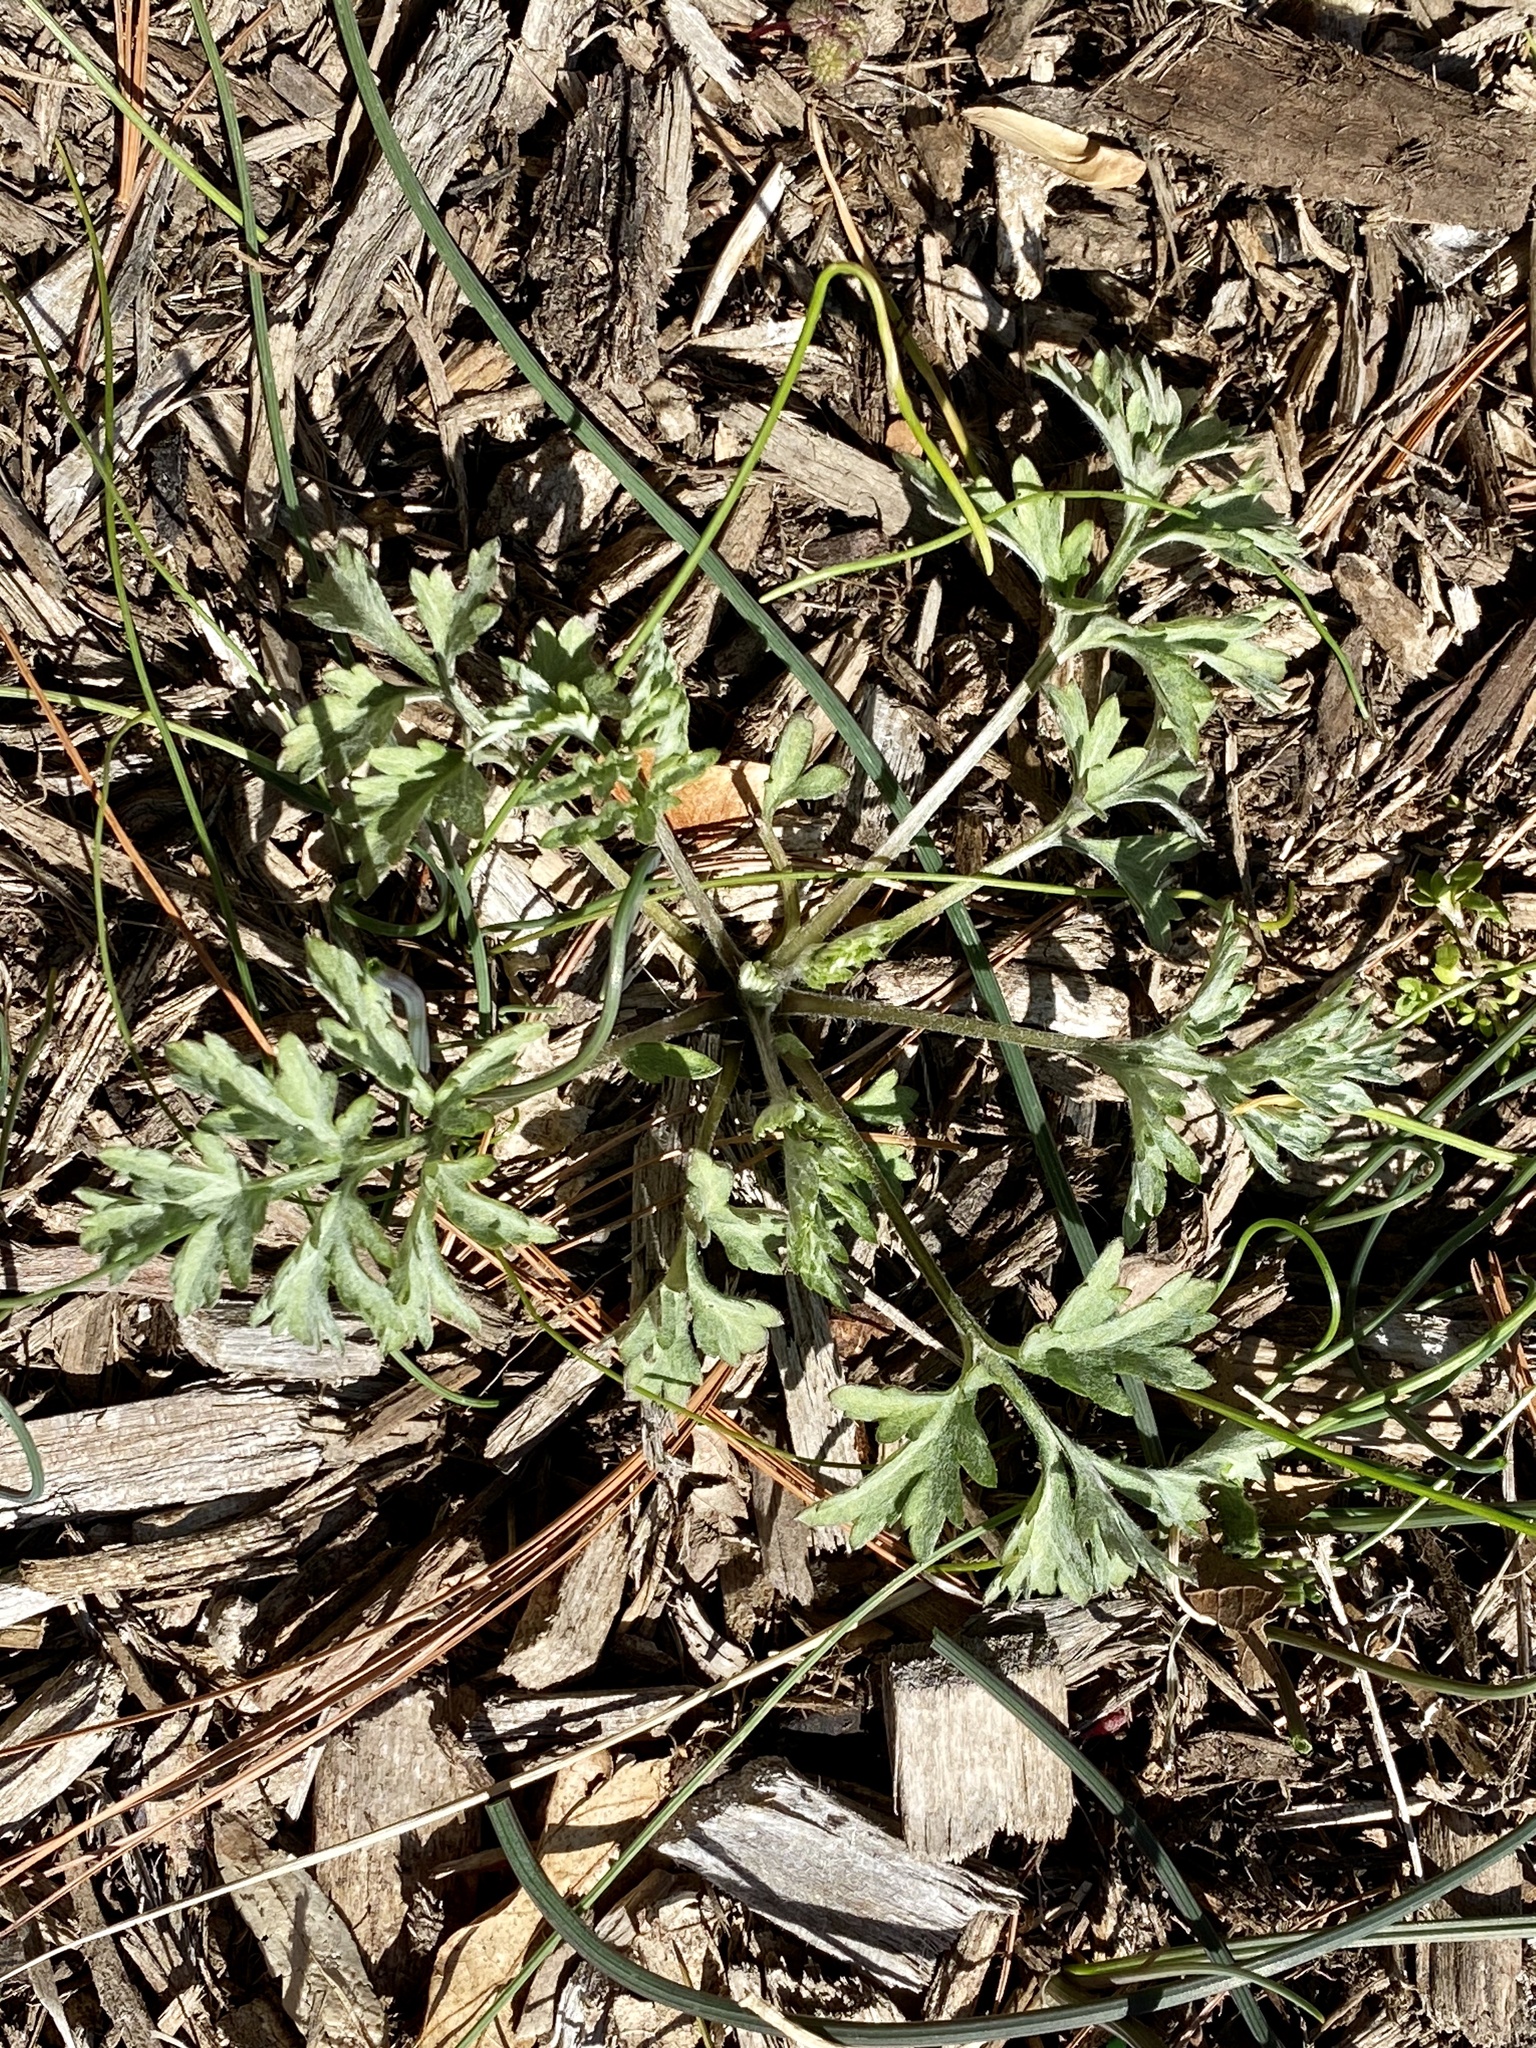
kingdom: Plantae
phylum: Tracheophyta
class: Magnoliopsida
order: Asterales
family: Asteraceae
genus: Artemisia
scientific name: Artemisia vulgaris
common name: Mugwort
